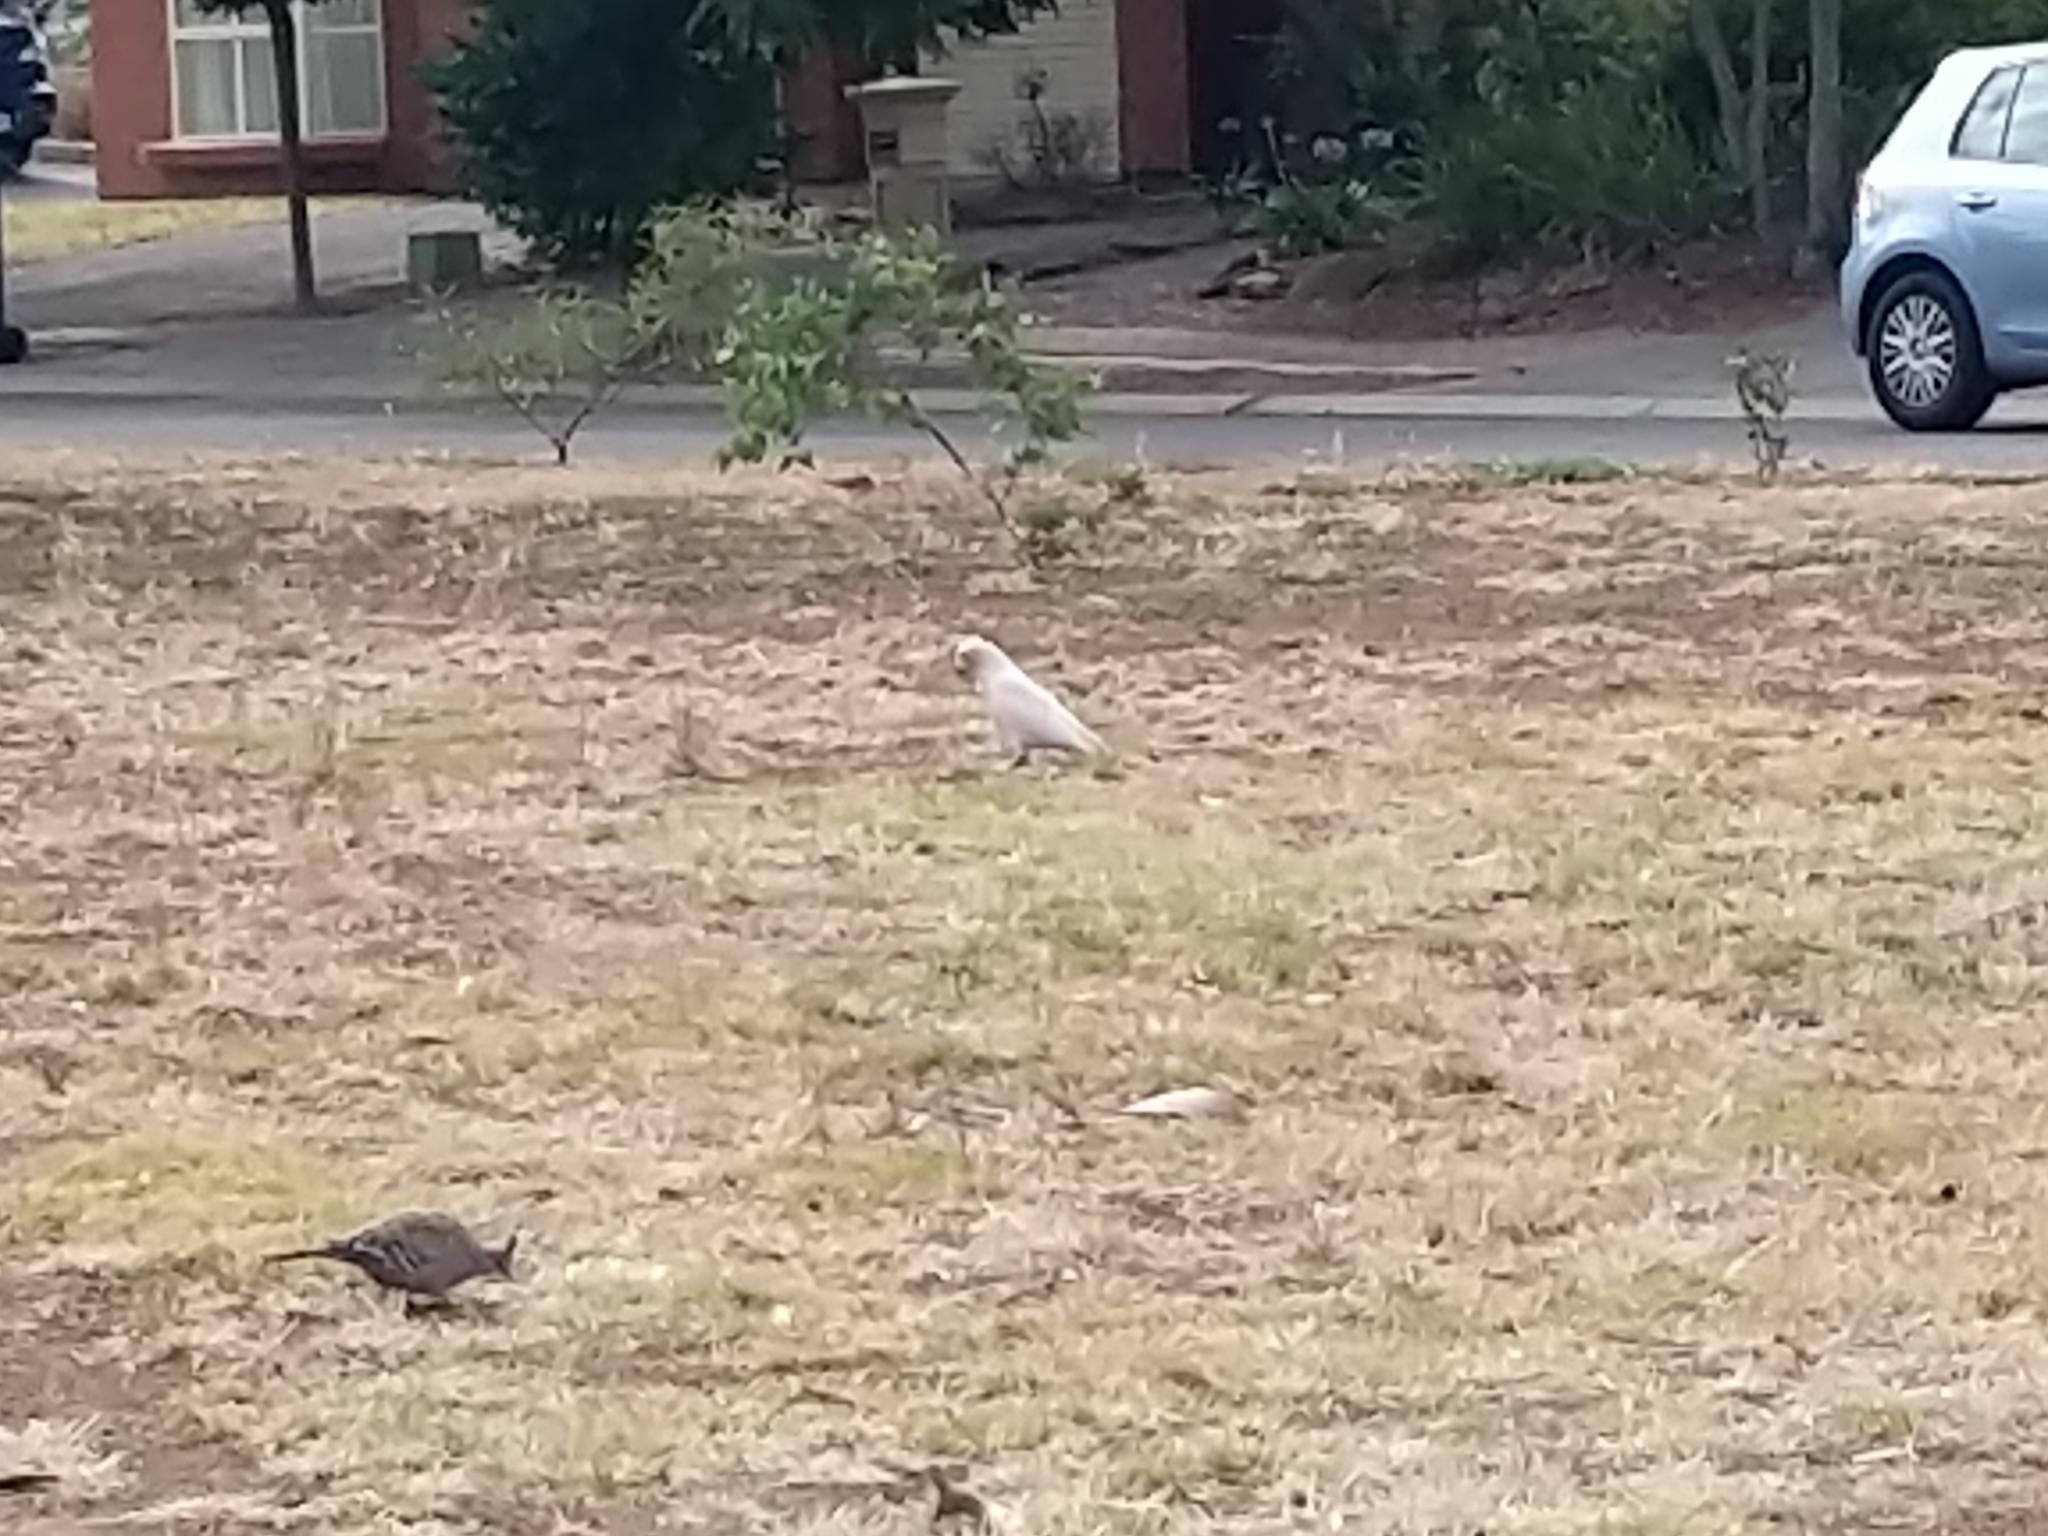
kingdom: Animalia
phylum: Chordata
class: Aves
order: Psittaciformes
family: Psittacidae
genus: Cacatua
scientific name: Cacatua sanguinea
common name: Little corella
